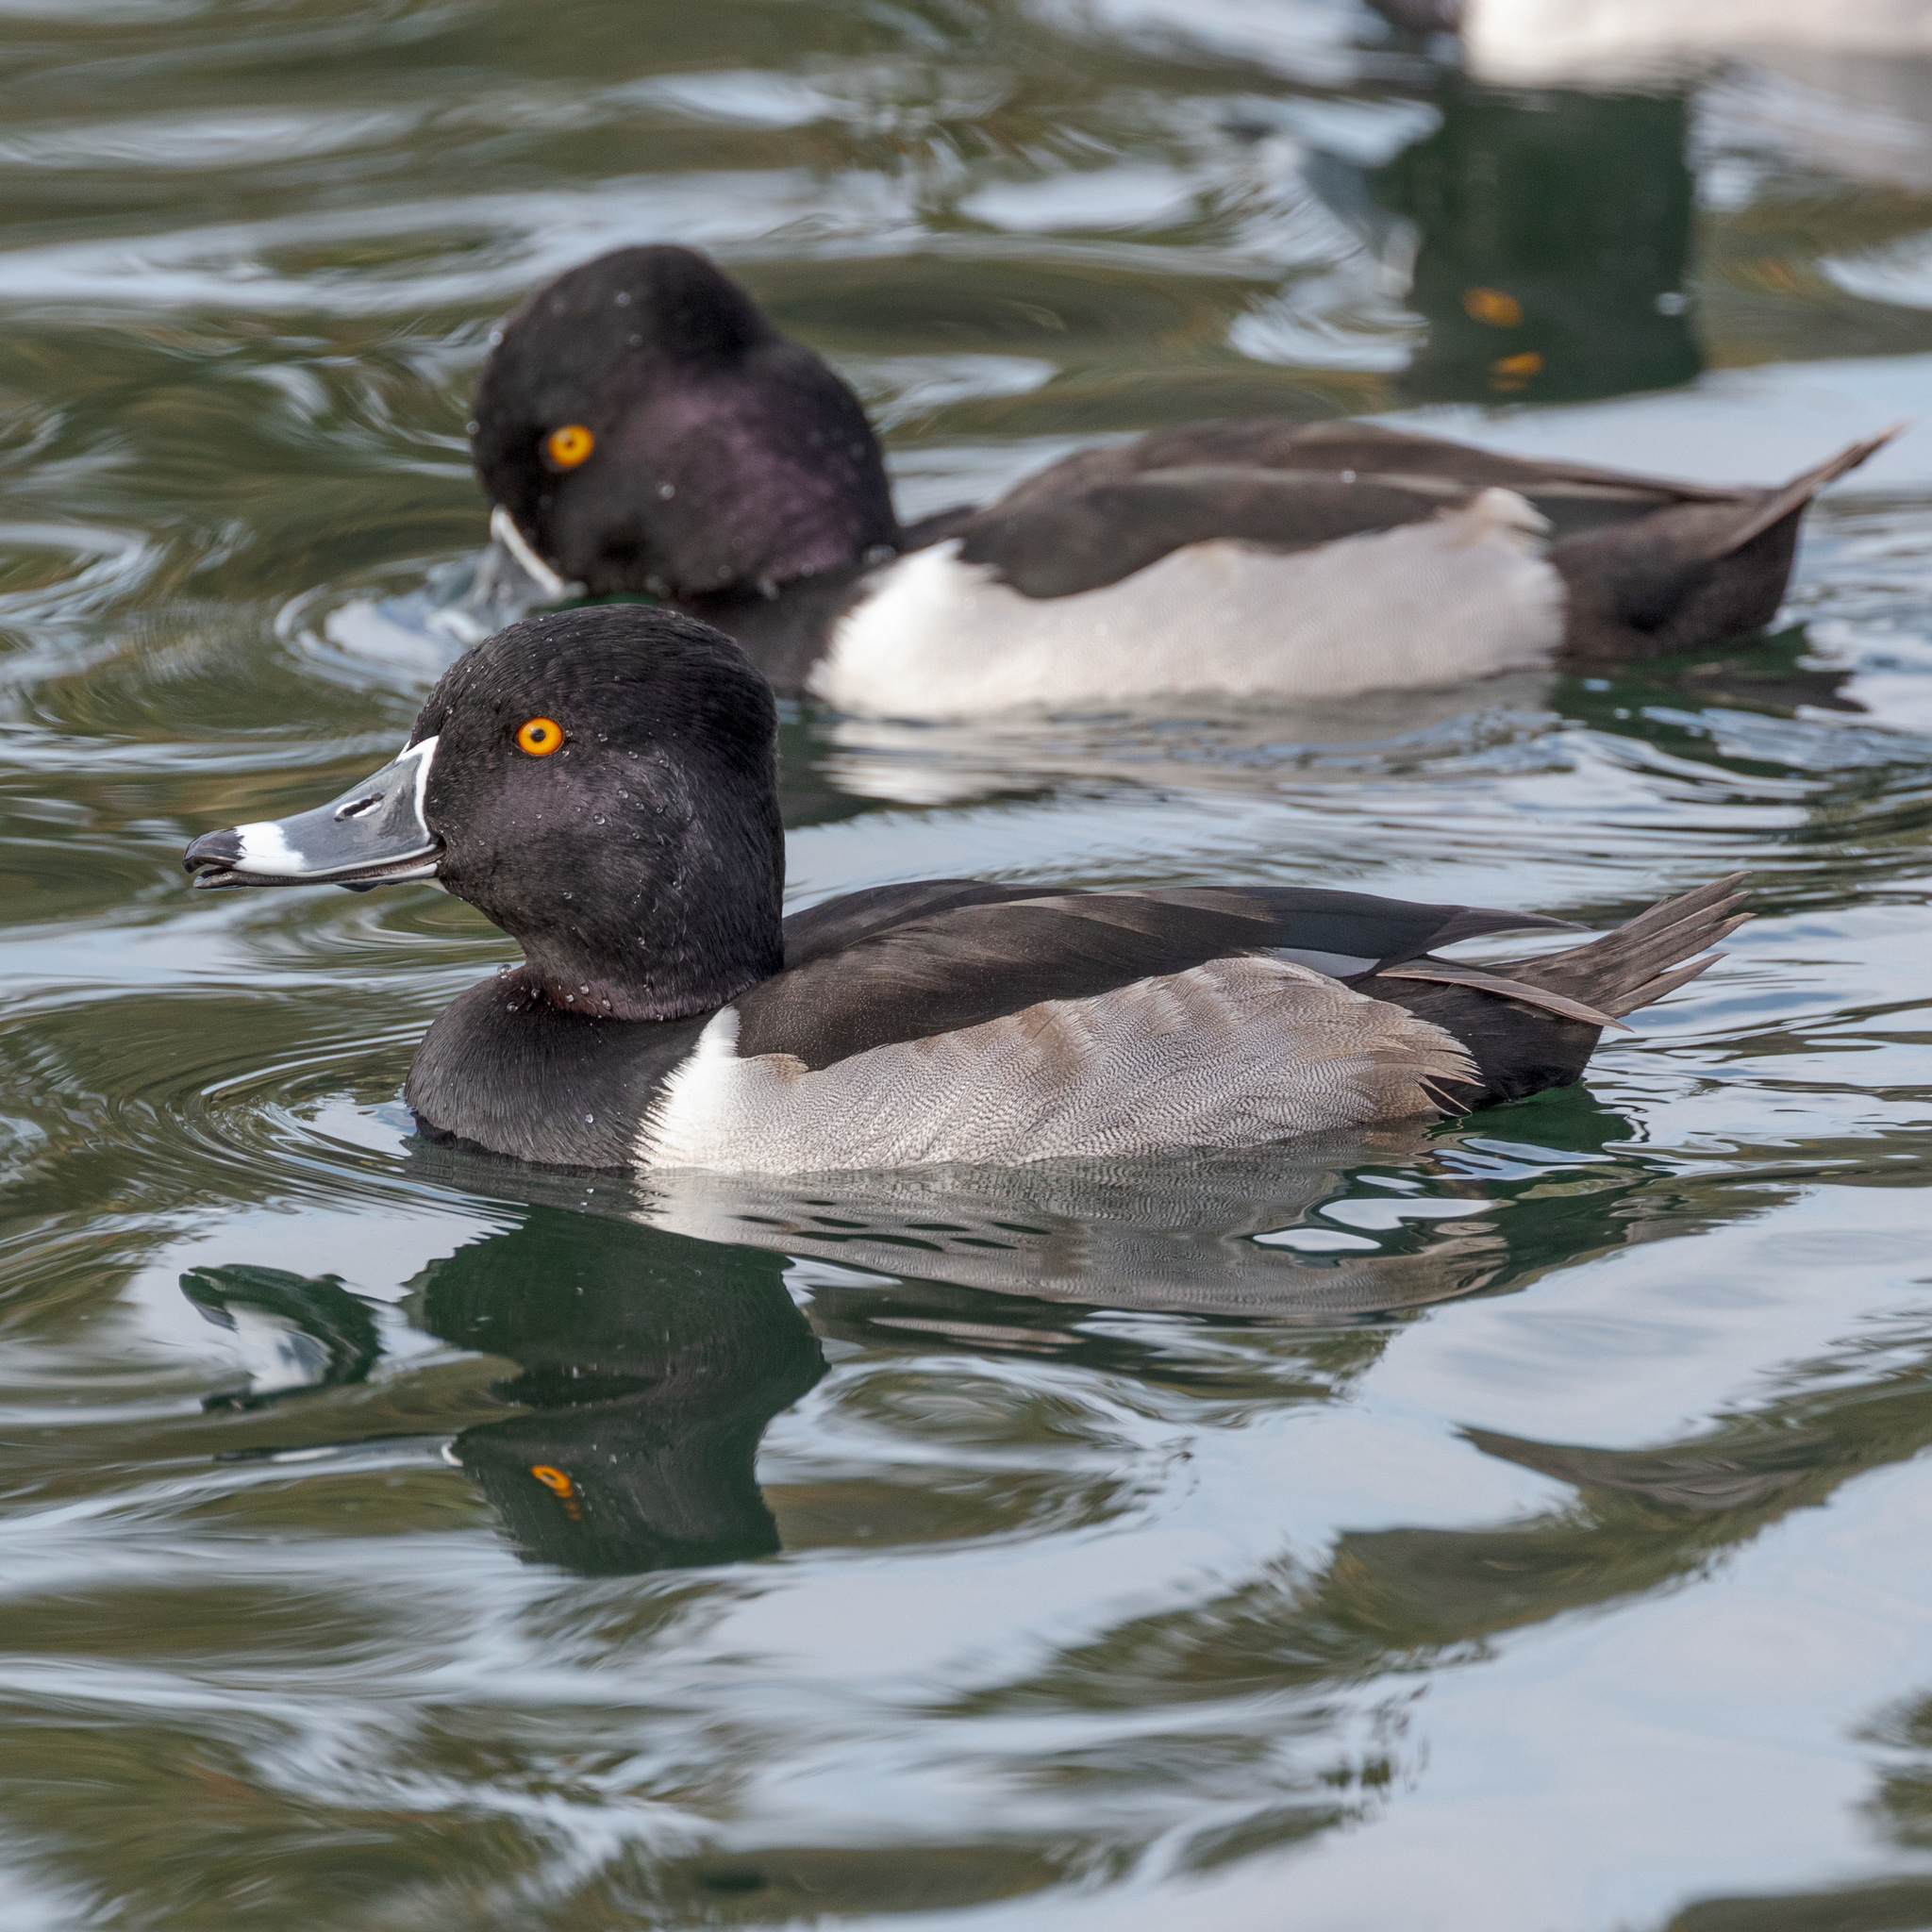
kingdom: Animalia
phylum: Chordata
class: Aves
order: Anseriformes
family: Anatidae
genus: Aythya
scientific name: Aythya collaris
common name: Ring-necked duck
